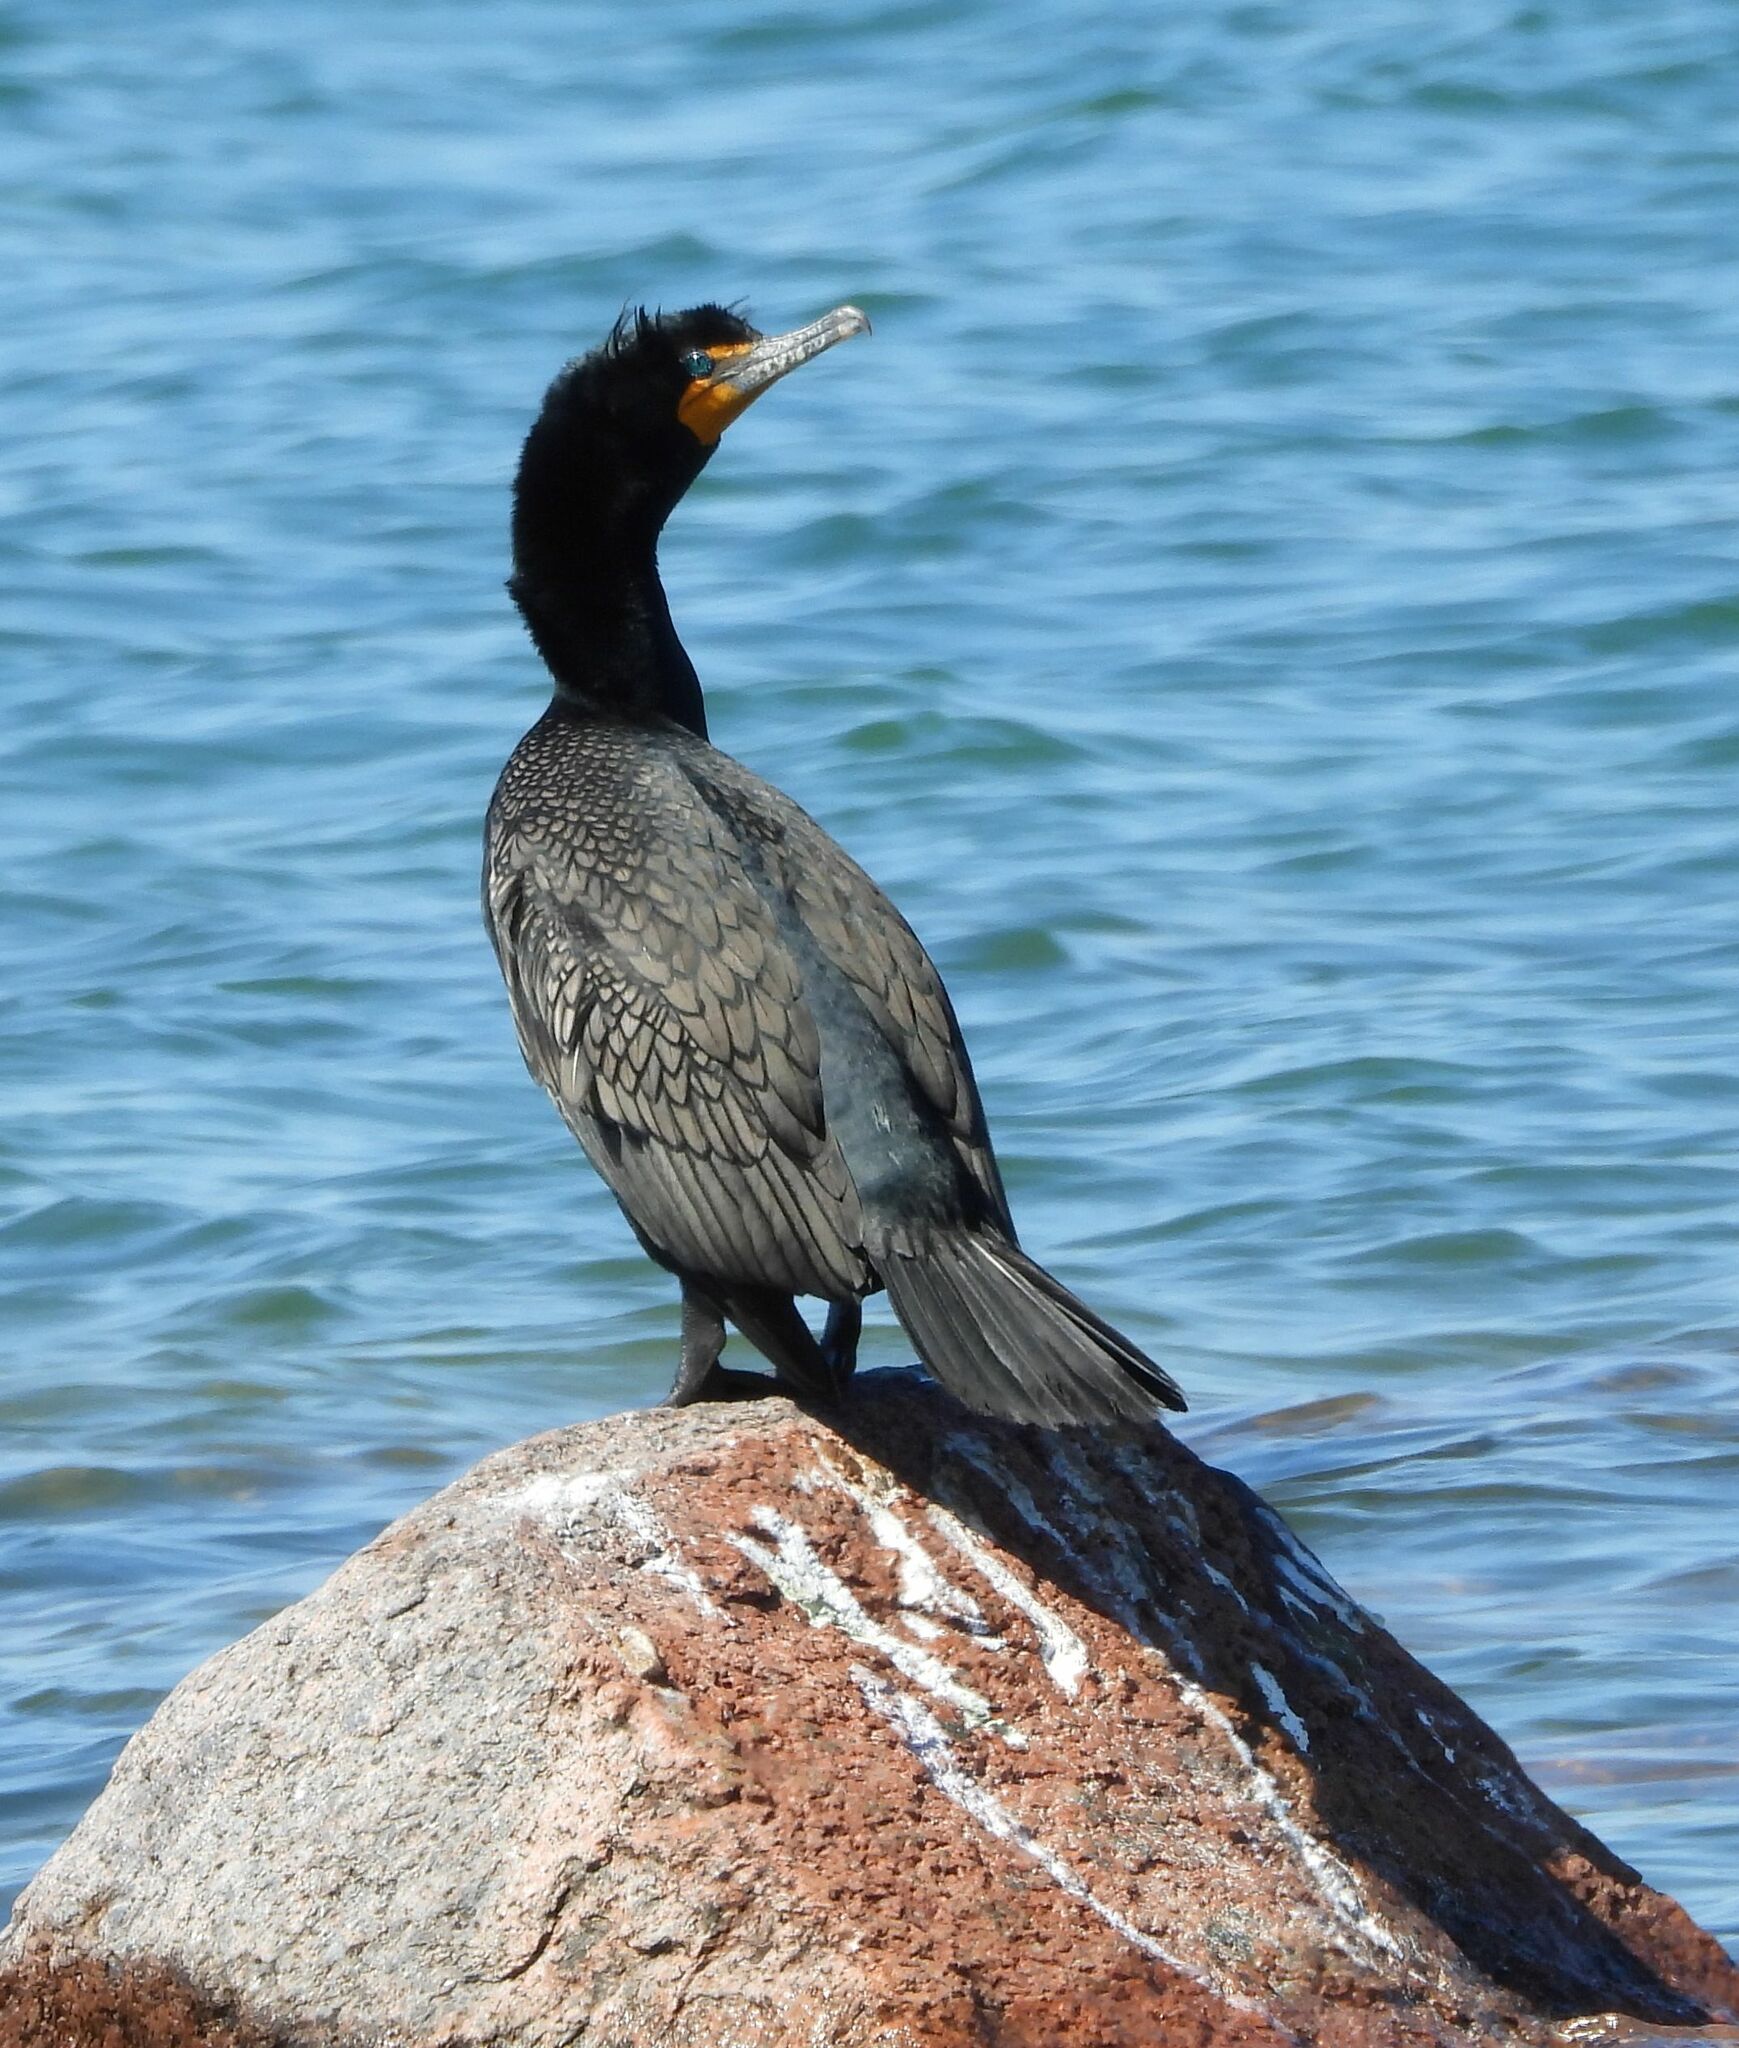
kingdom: Animalia
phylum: Chordata
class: Aves
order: Suliformes
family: Phalacrocoracidae
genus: Phalacrocorax
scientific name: Phalacrocorax auritus
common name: Double-crested cormorant
